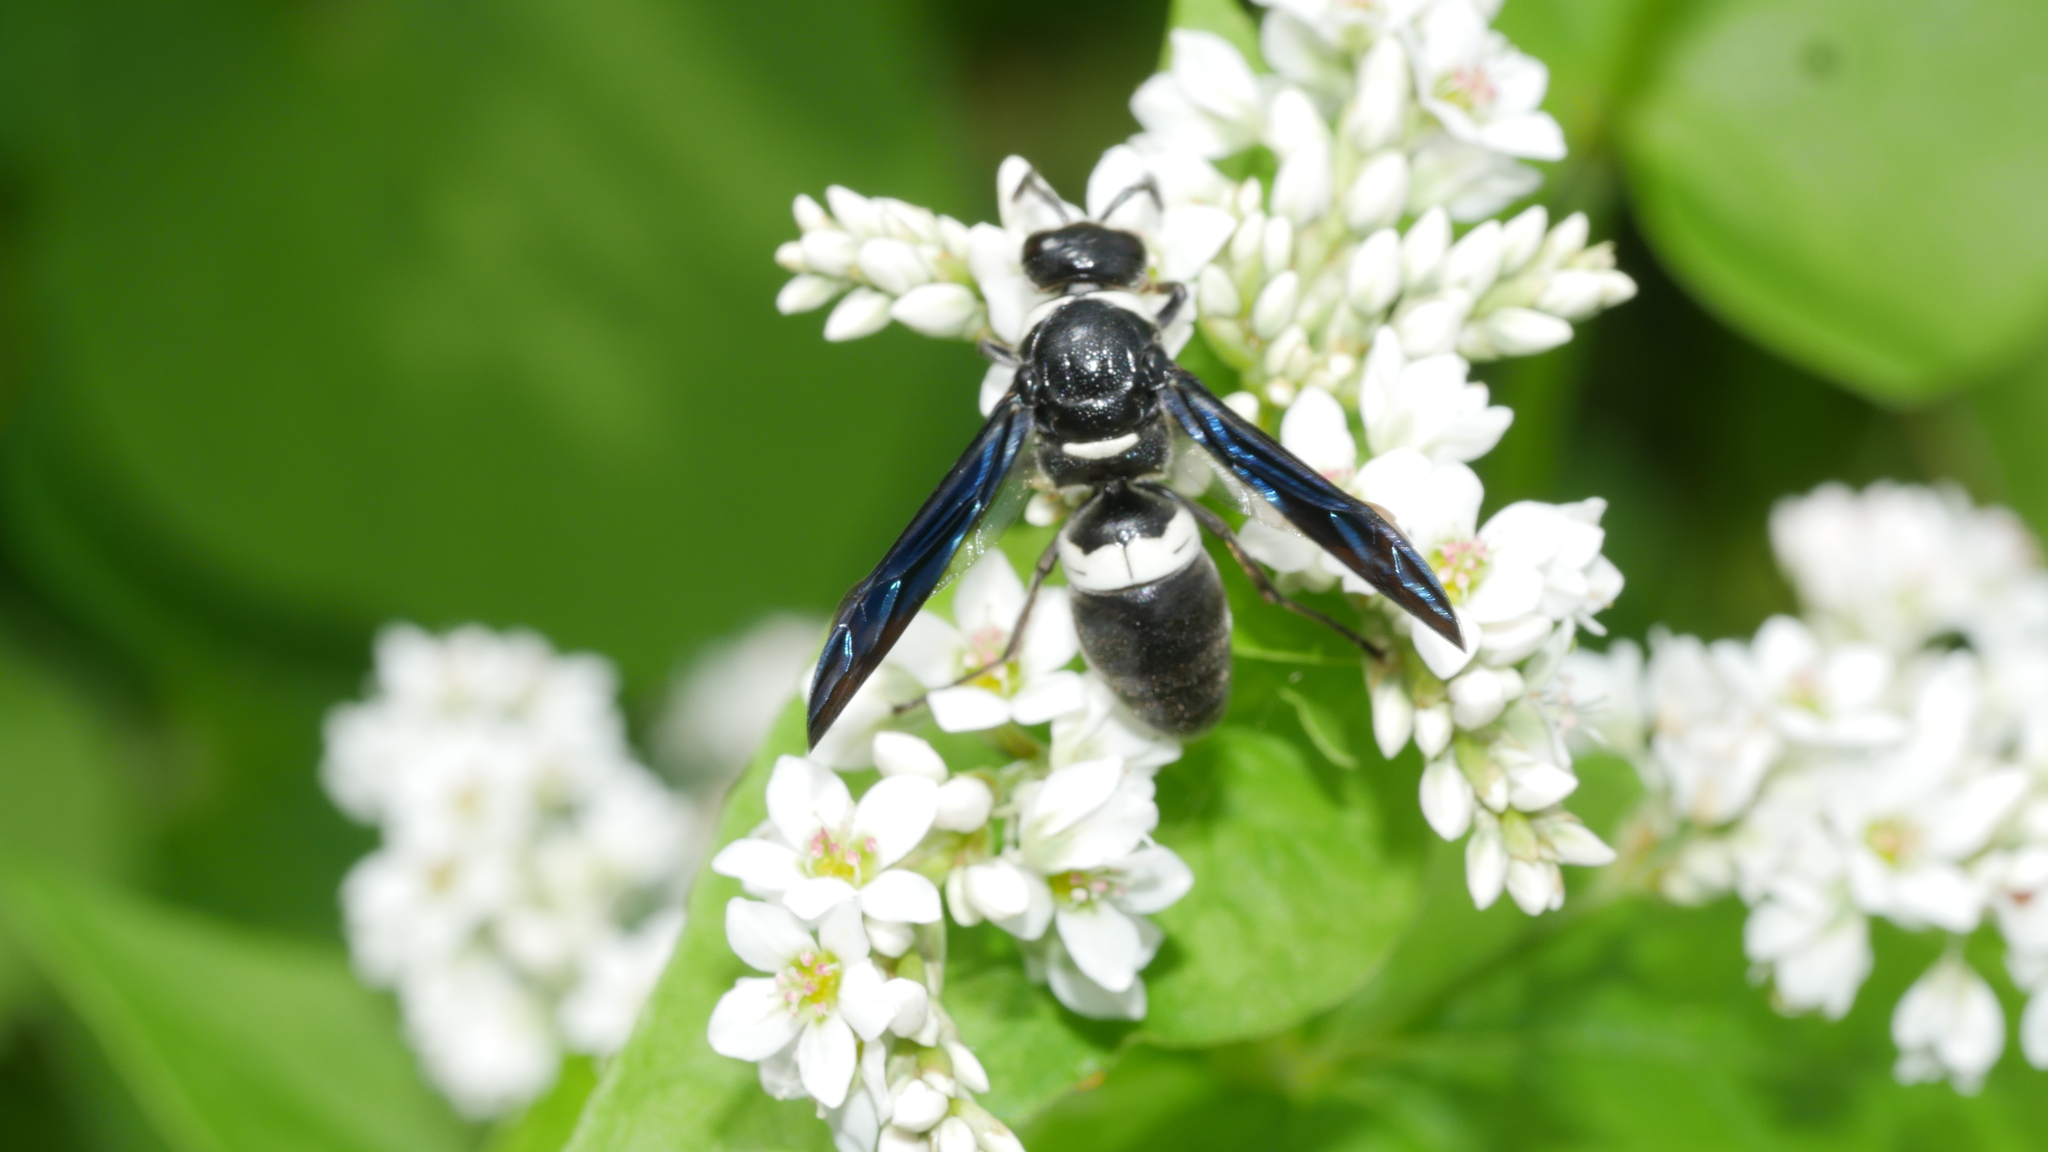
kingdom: Animalia
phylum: Arthropoda
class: Insecta
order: Hymenoptera
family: Eumenidae
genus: Monobia
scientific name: Monobia quadridens
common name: Four-toothed mason wasp
